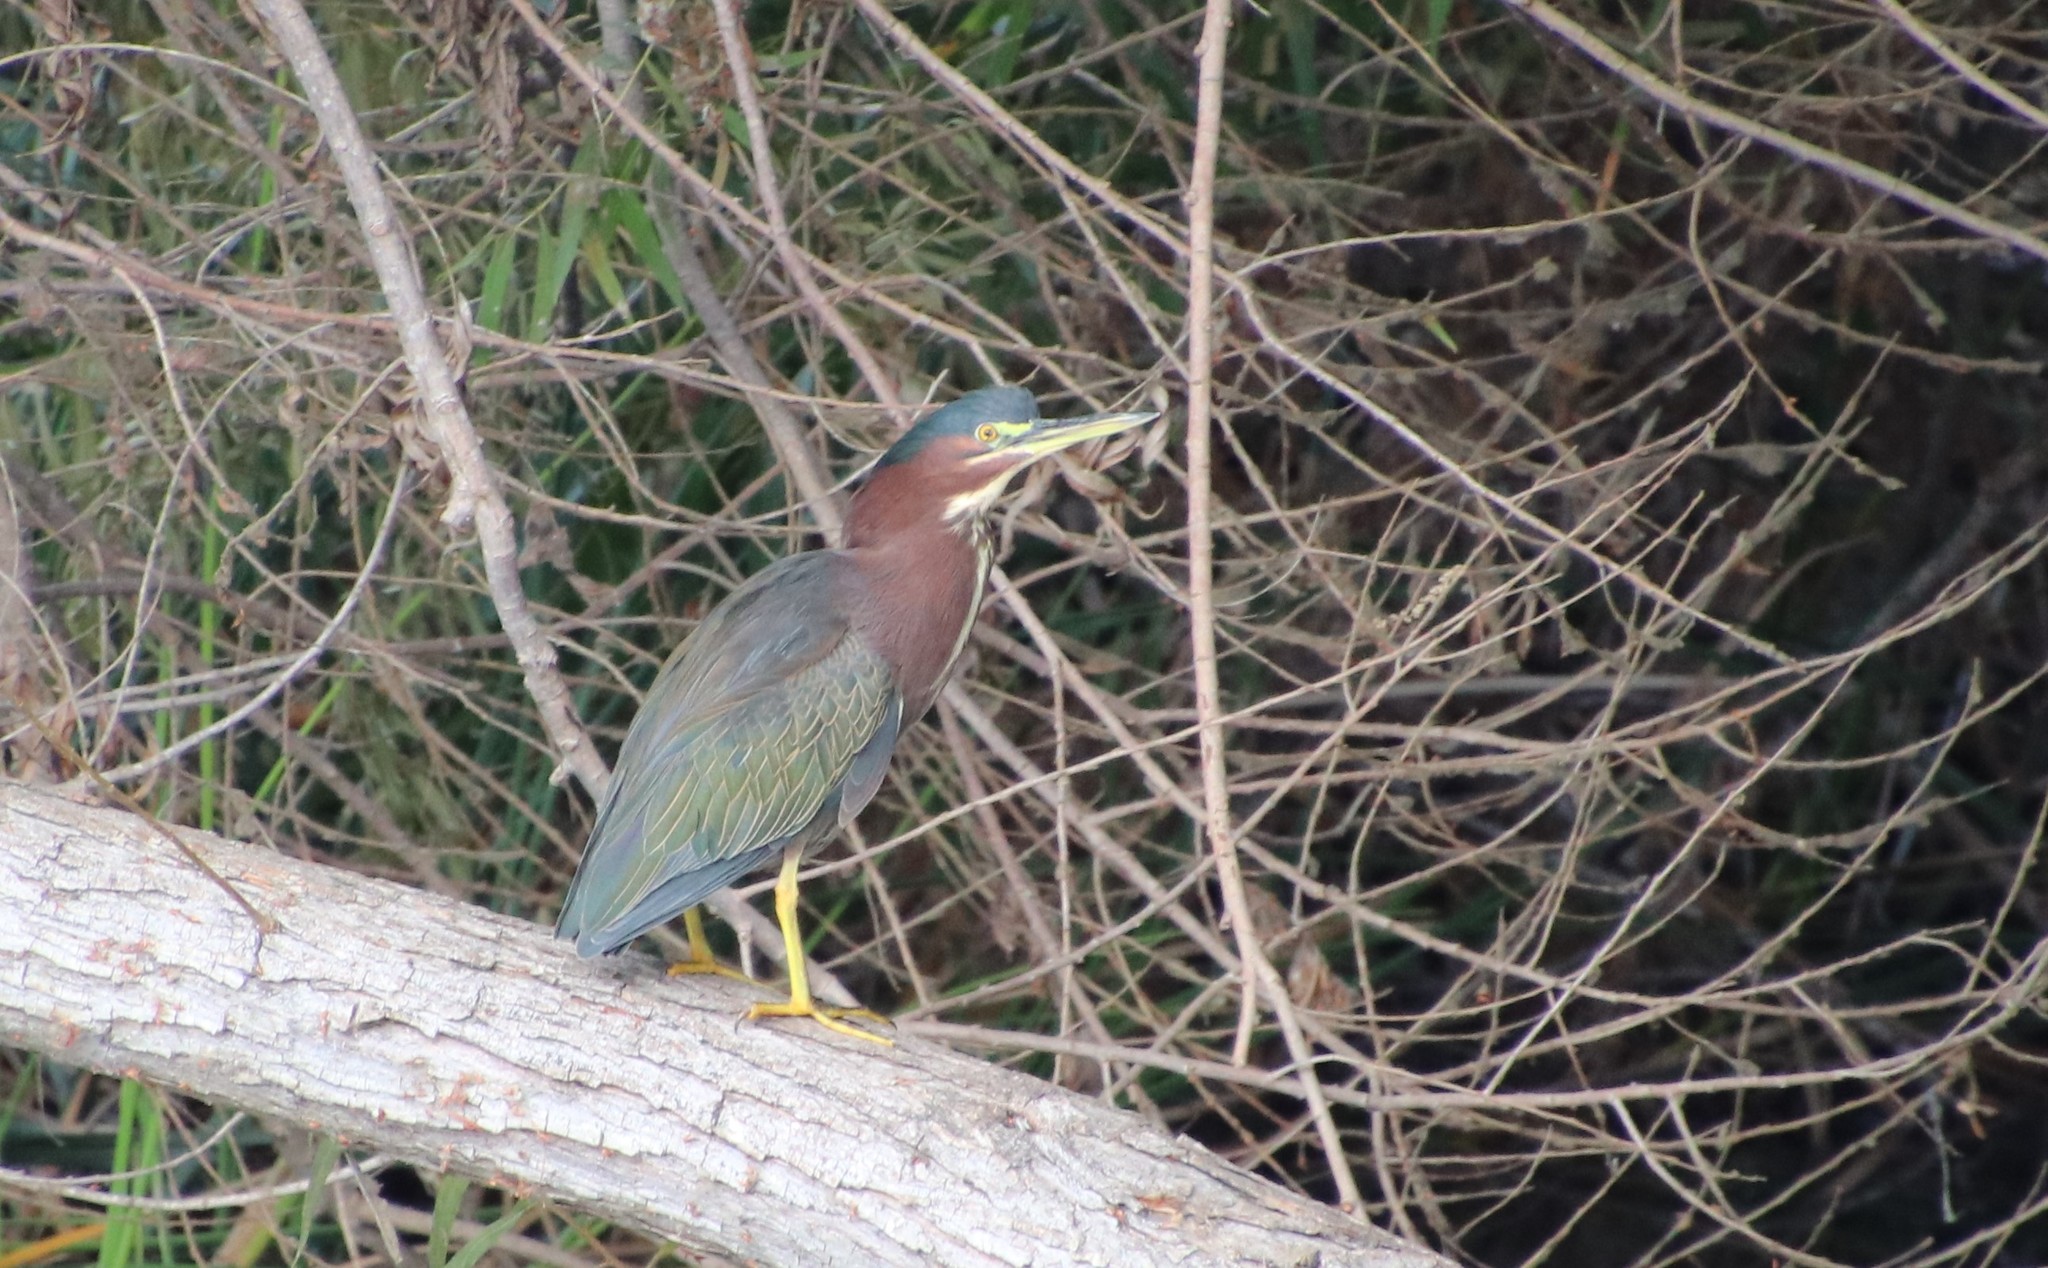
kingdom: Animalia
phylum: Chordata
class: Aves
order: Pelecaniformes
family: Ardeidae
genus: Butorides
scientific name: Butorides virescens
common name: Green heron
